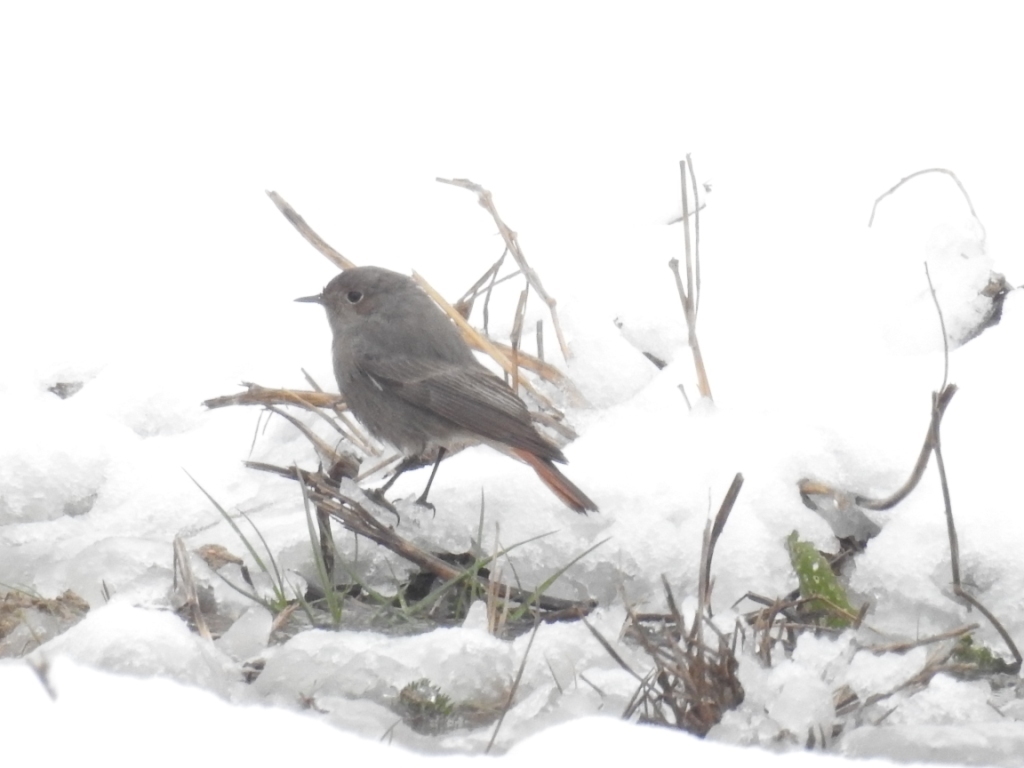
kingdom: Animalia
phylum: Chordata
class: Aves
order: Passeriformes
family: Muscicapidae
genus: Phoenicurus
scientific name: Phoenicurus ochruros
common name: Black redstart
